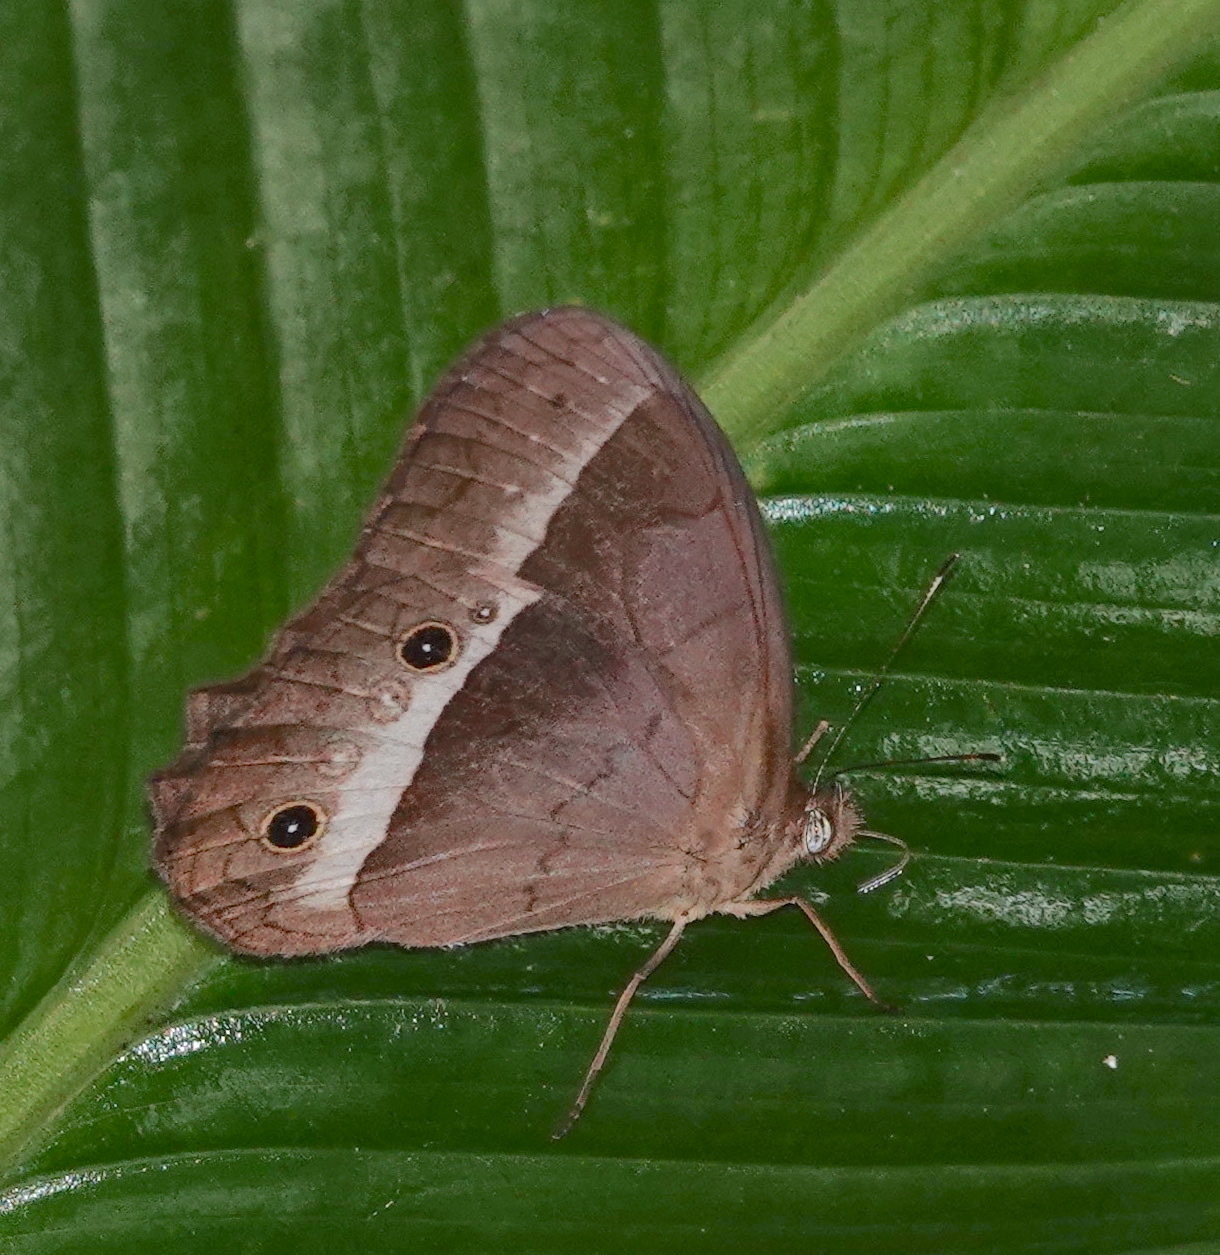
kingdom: Animalia
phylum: Arthropoda
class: Insecta
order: Lepidoptera
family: Nymphalidae
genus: Harjesia
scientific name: Harjesia blanda
